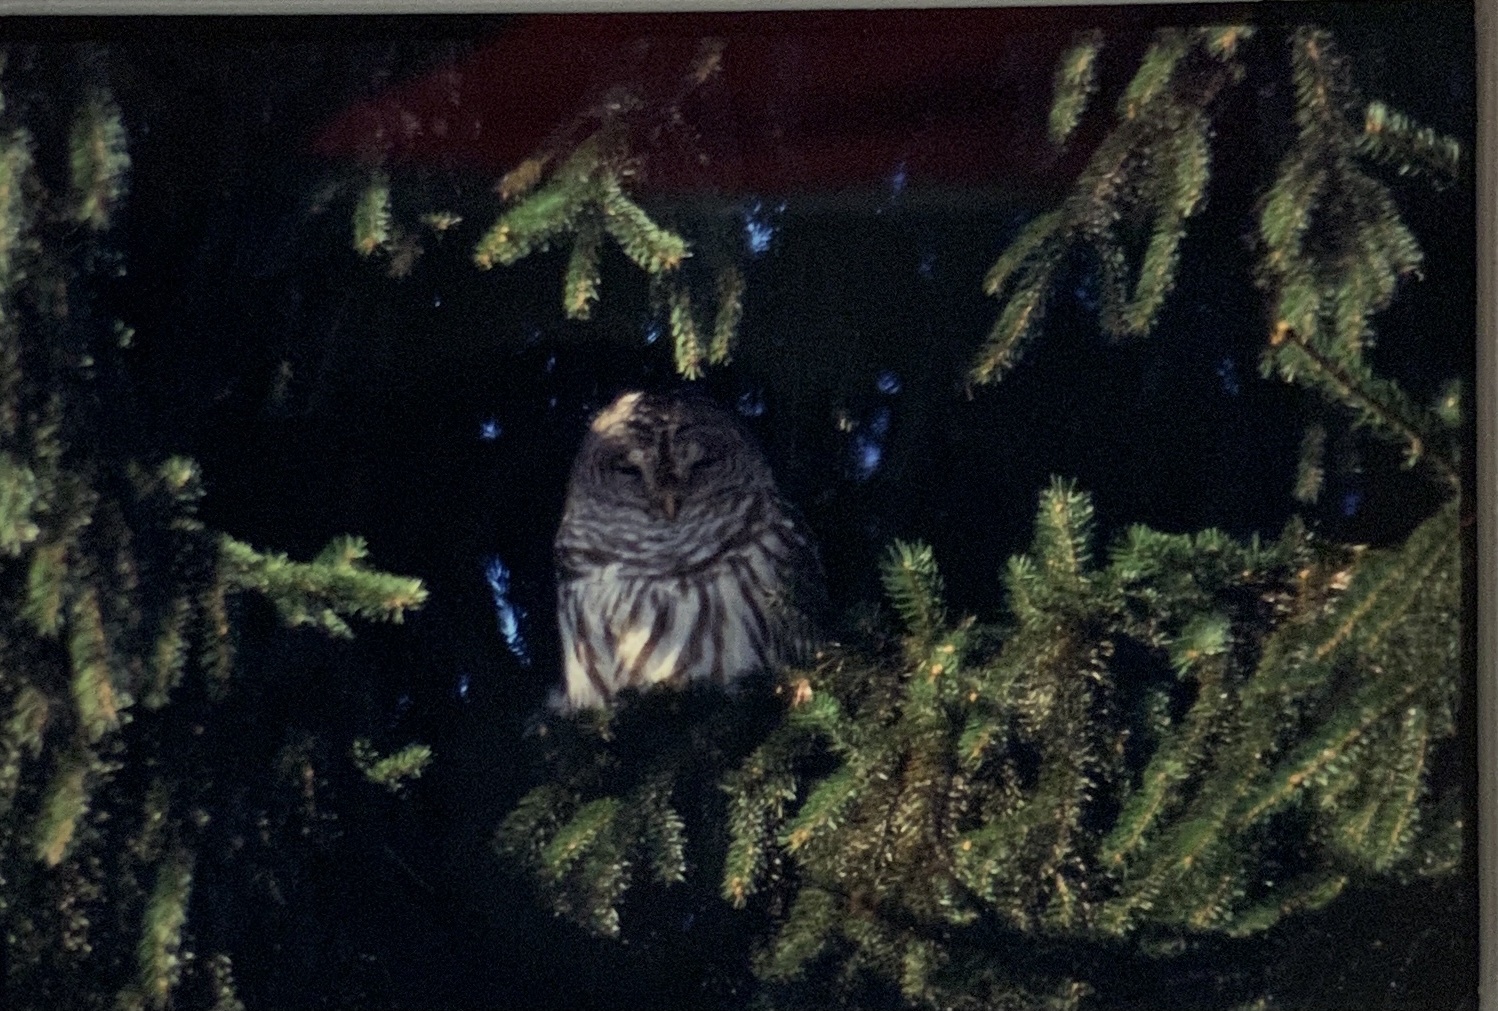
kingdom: Animalia
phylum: Chordata
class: Aves
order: Strigiformes
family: Strigidae
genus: Strix
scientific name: Strix varia
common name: Barred owl
